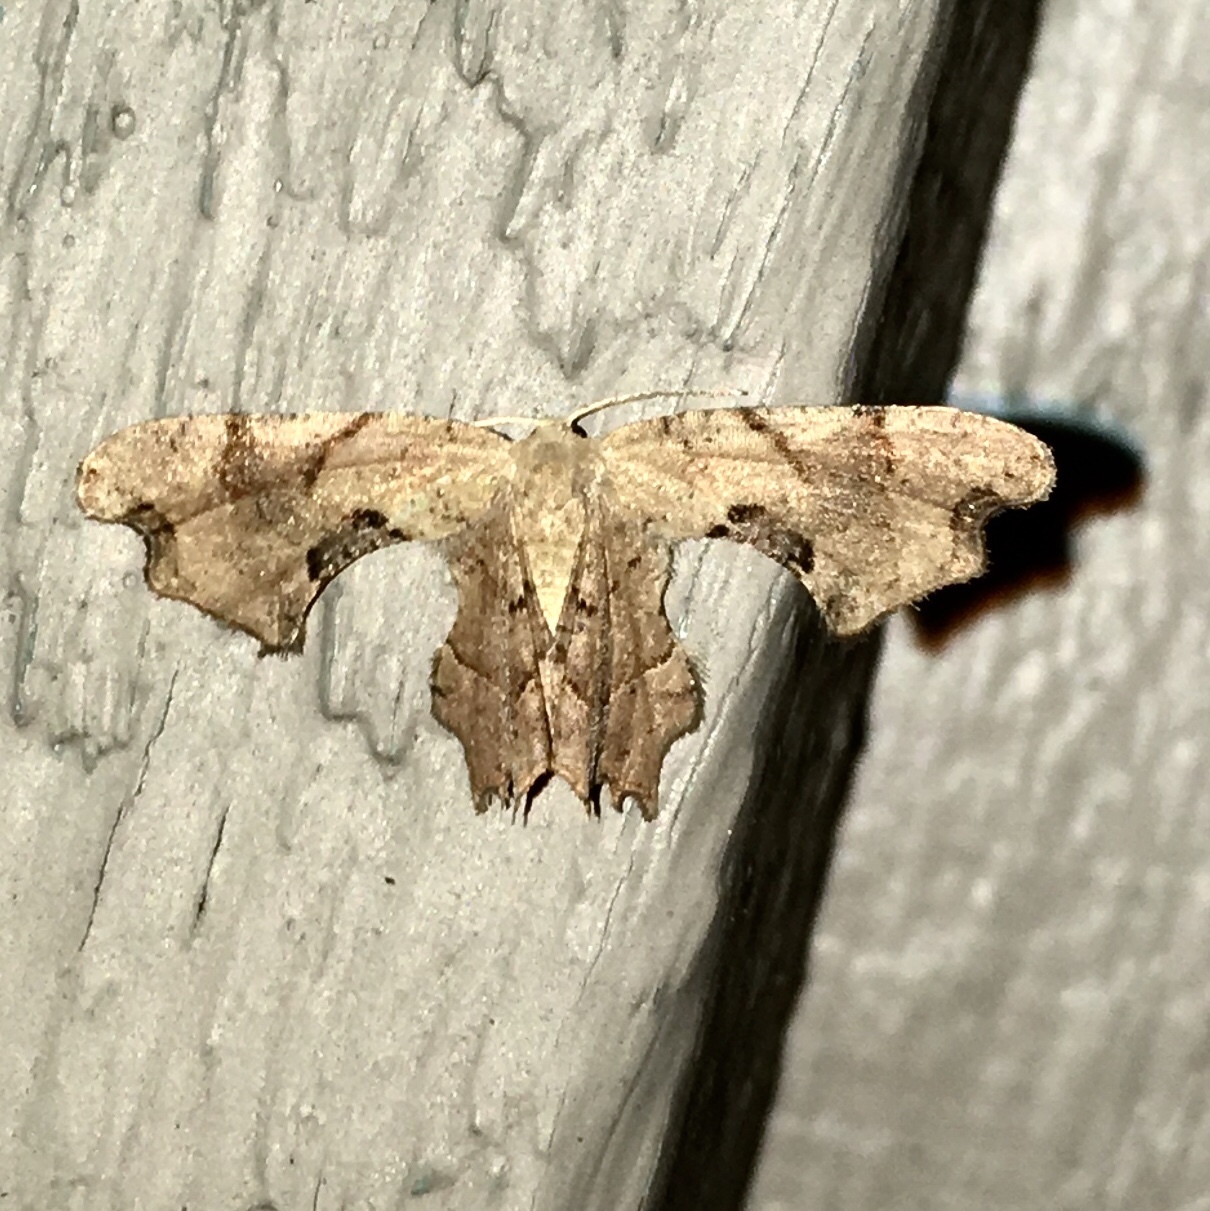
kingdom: Animalia
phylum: Arthropoda
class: Insecta
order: Lepidoptera
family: Uraniidae
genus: Epiplema
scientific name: Epiplema Calledapteryx dryopterata
